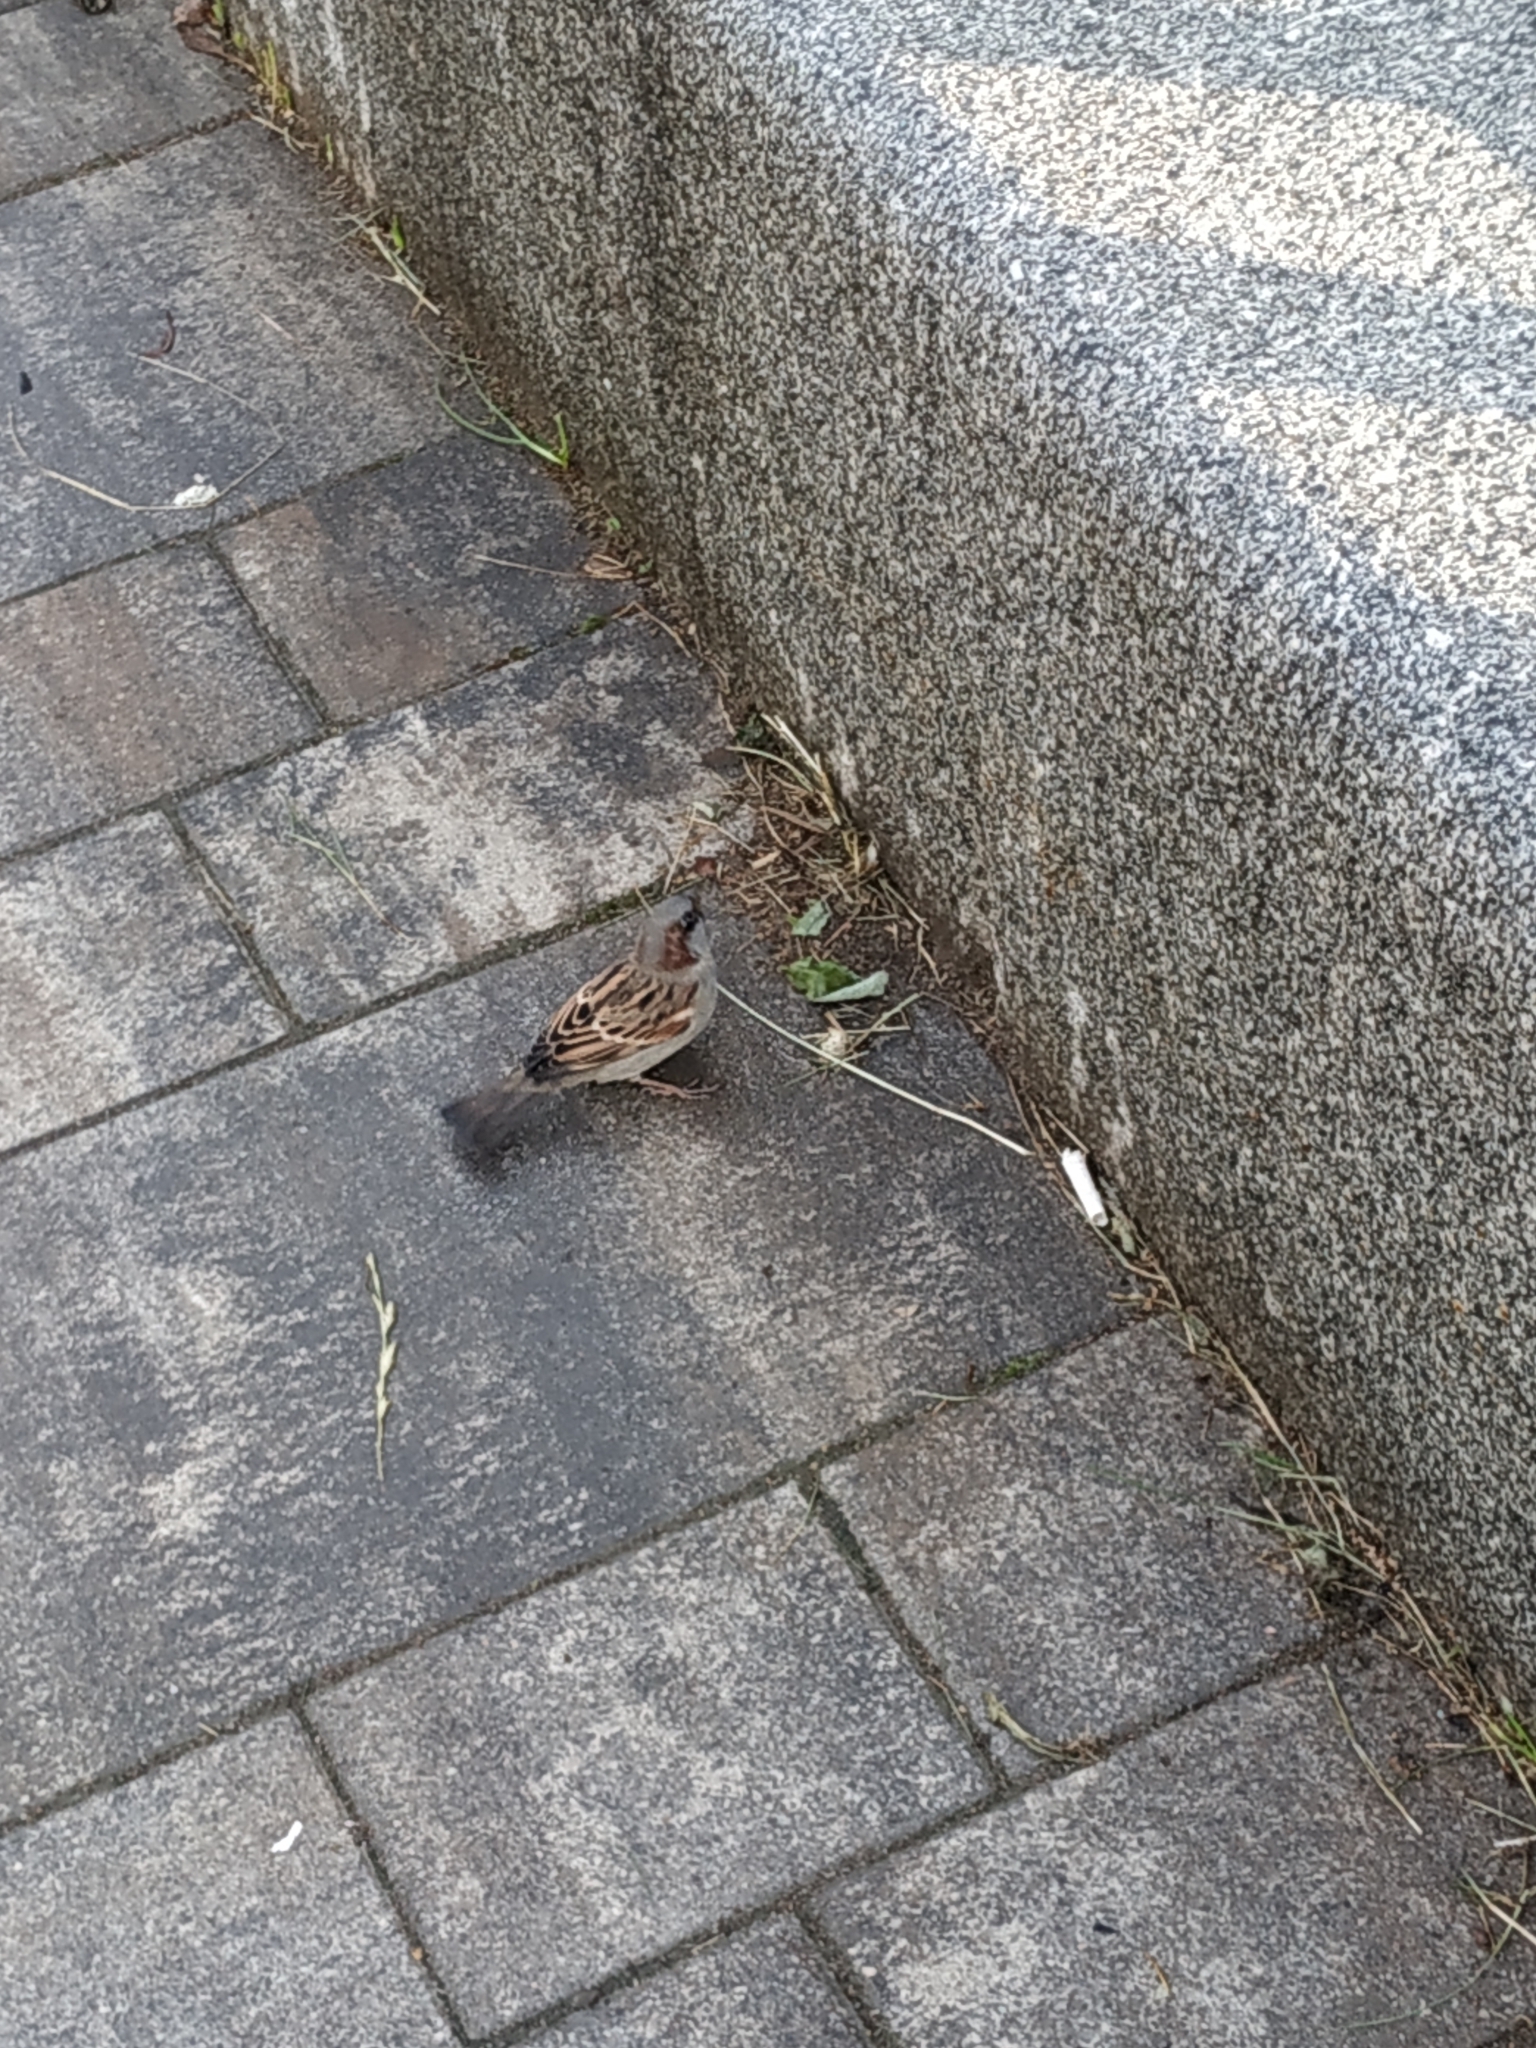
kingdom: Animalia
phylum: Chordata
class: Aves
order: Passeriformes
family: Passeridae
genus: Passer
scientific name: Passer domesticus
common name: House sparrow
